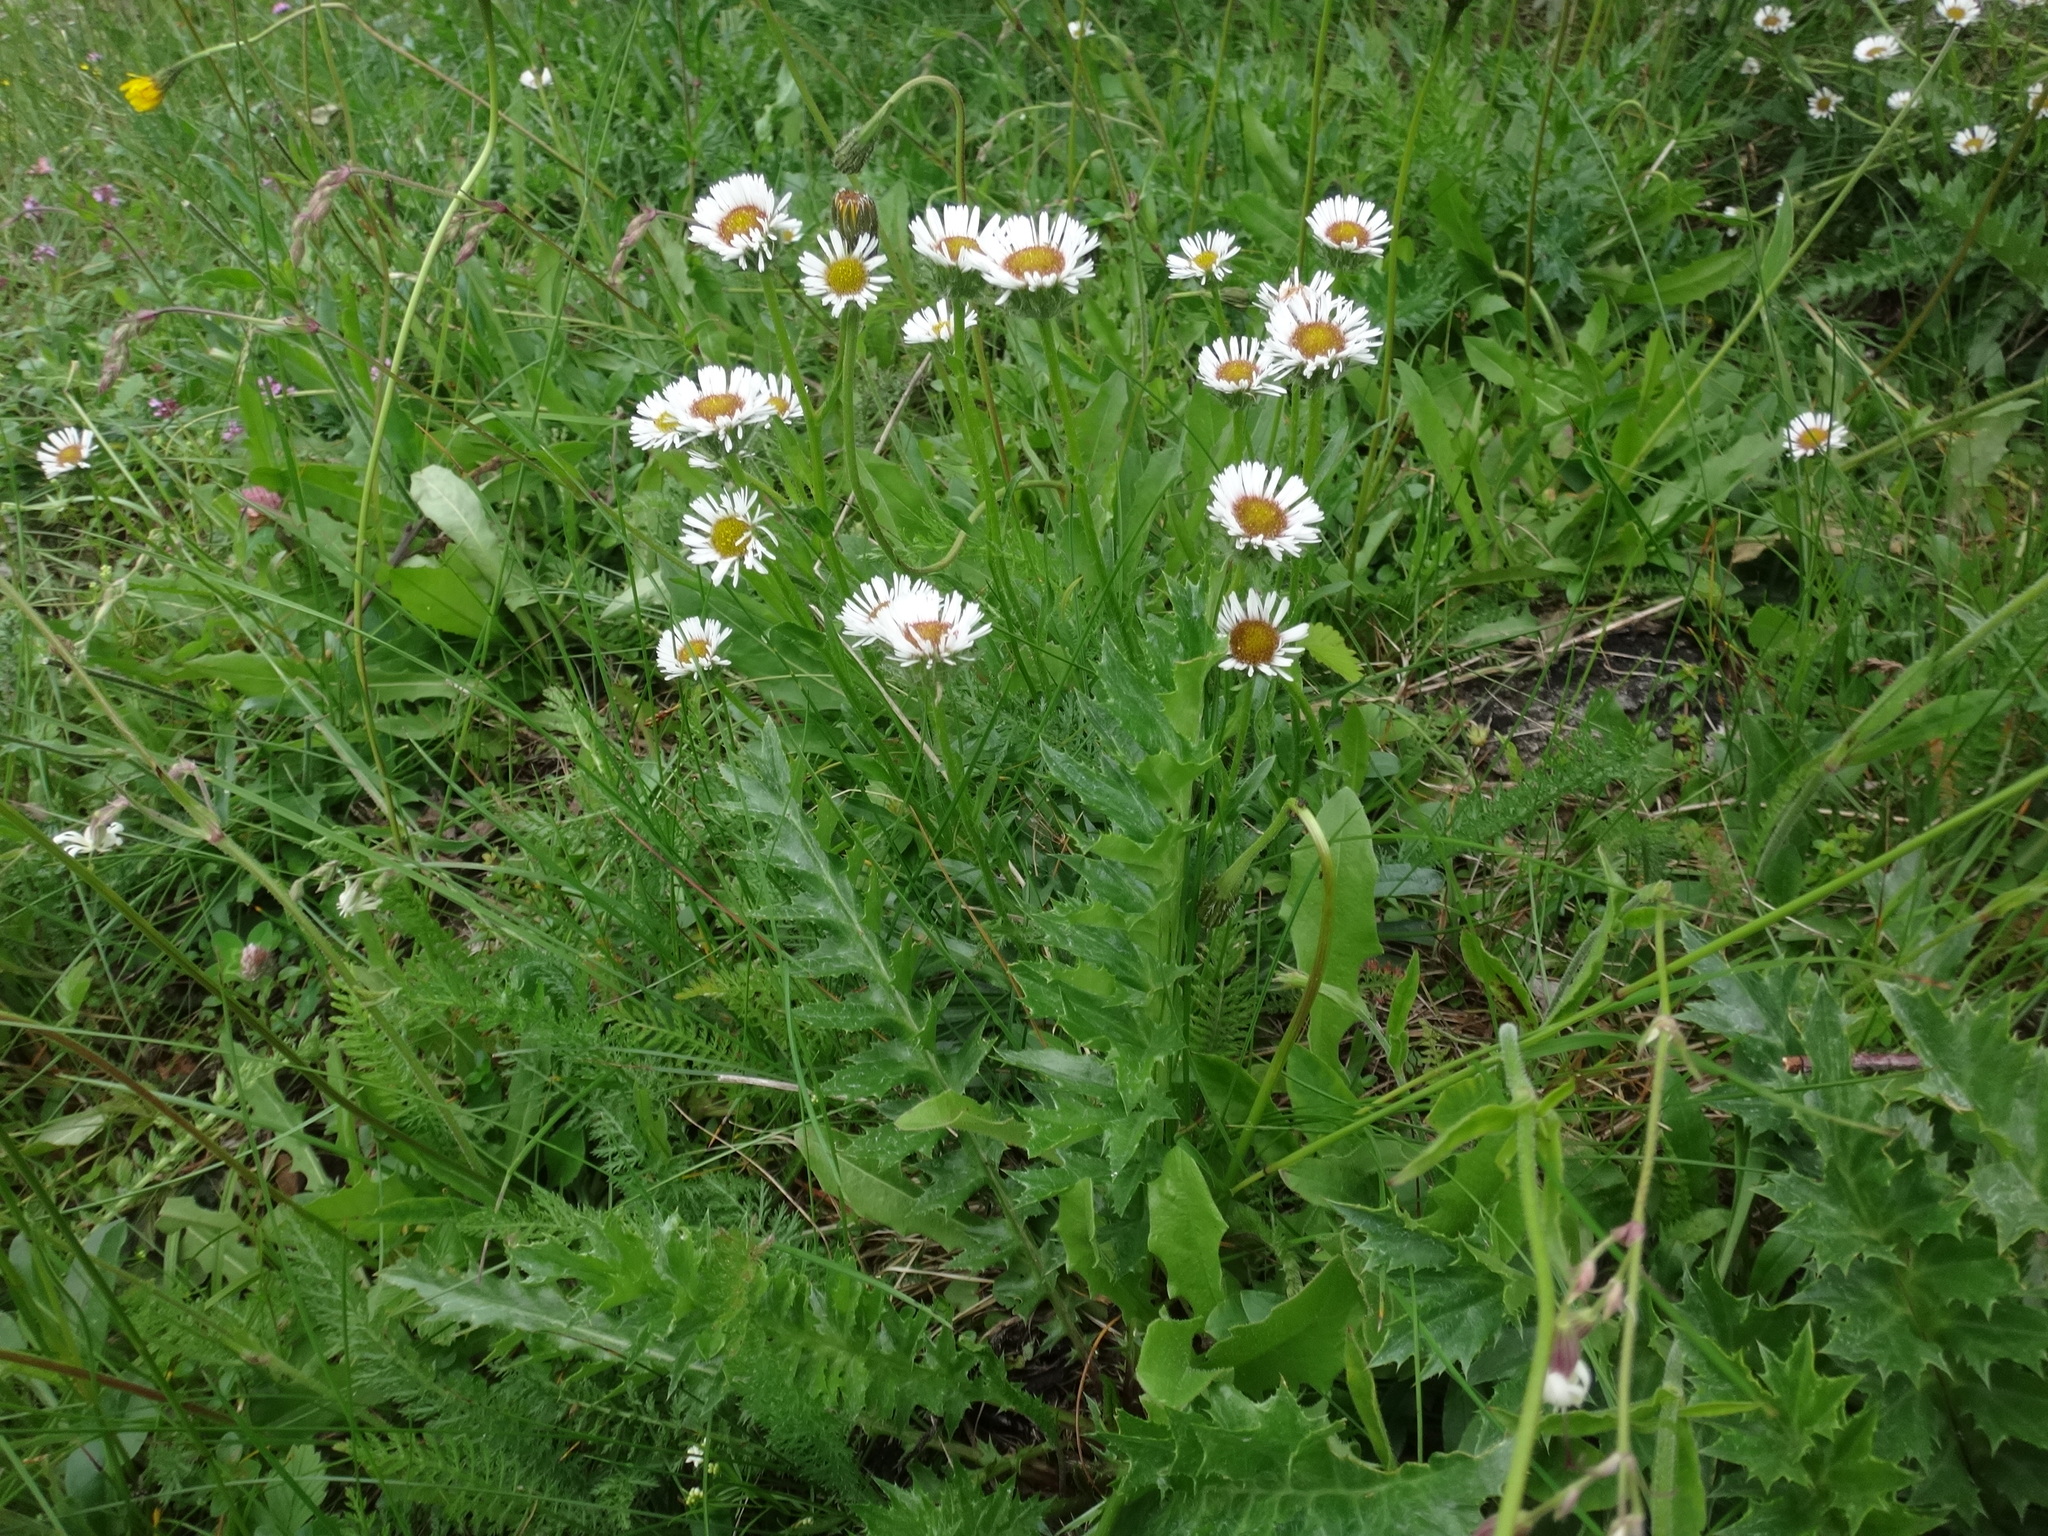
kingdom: Plantae
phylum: Tracheophyta
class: Magnoliopsida
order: Asterales
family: Asteraceae
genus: Erigeron
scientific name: Erigeron glabratus
